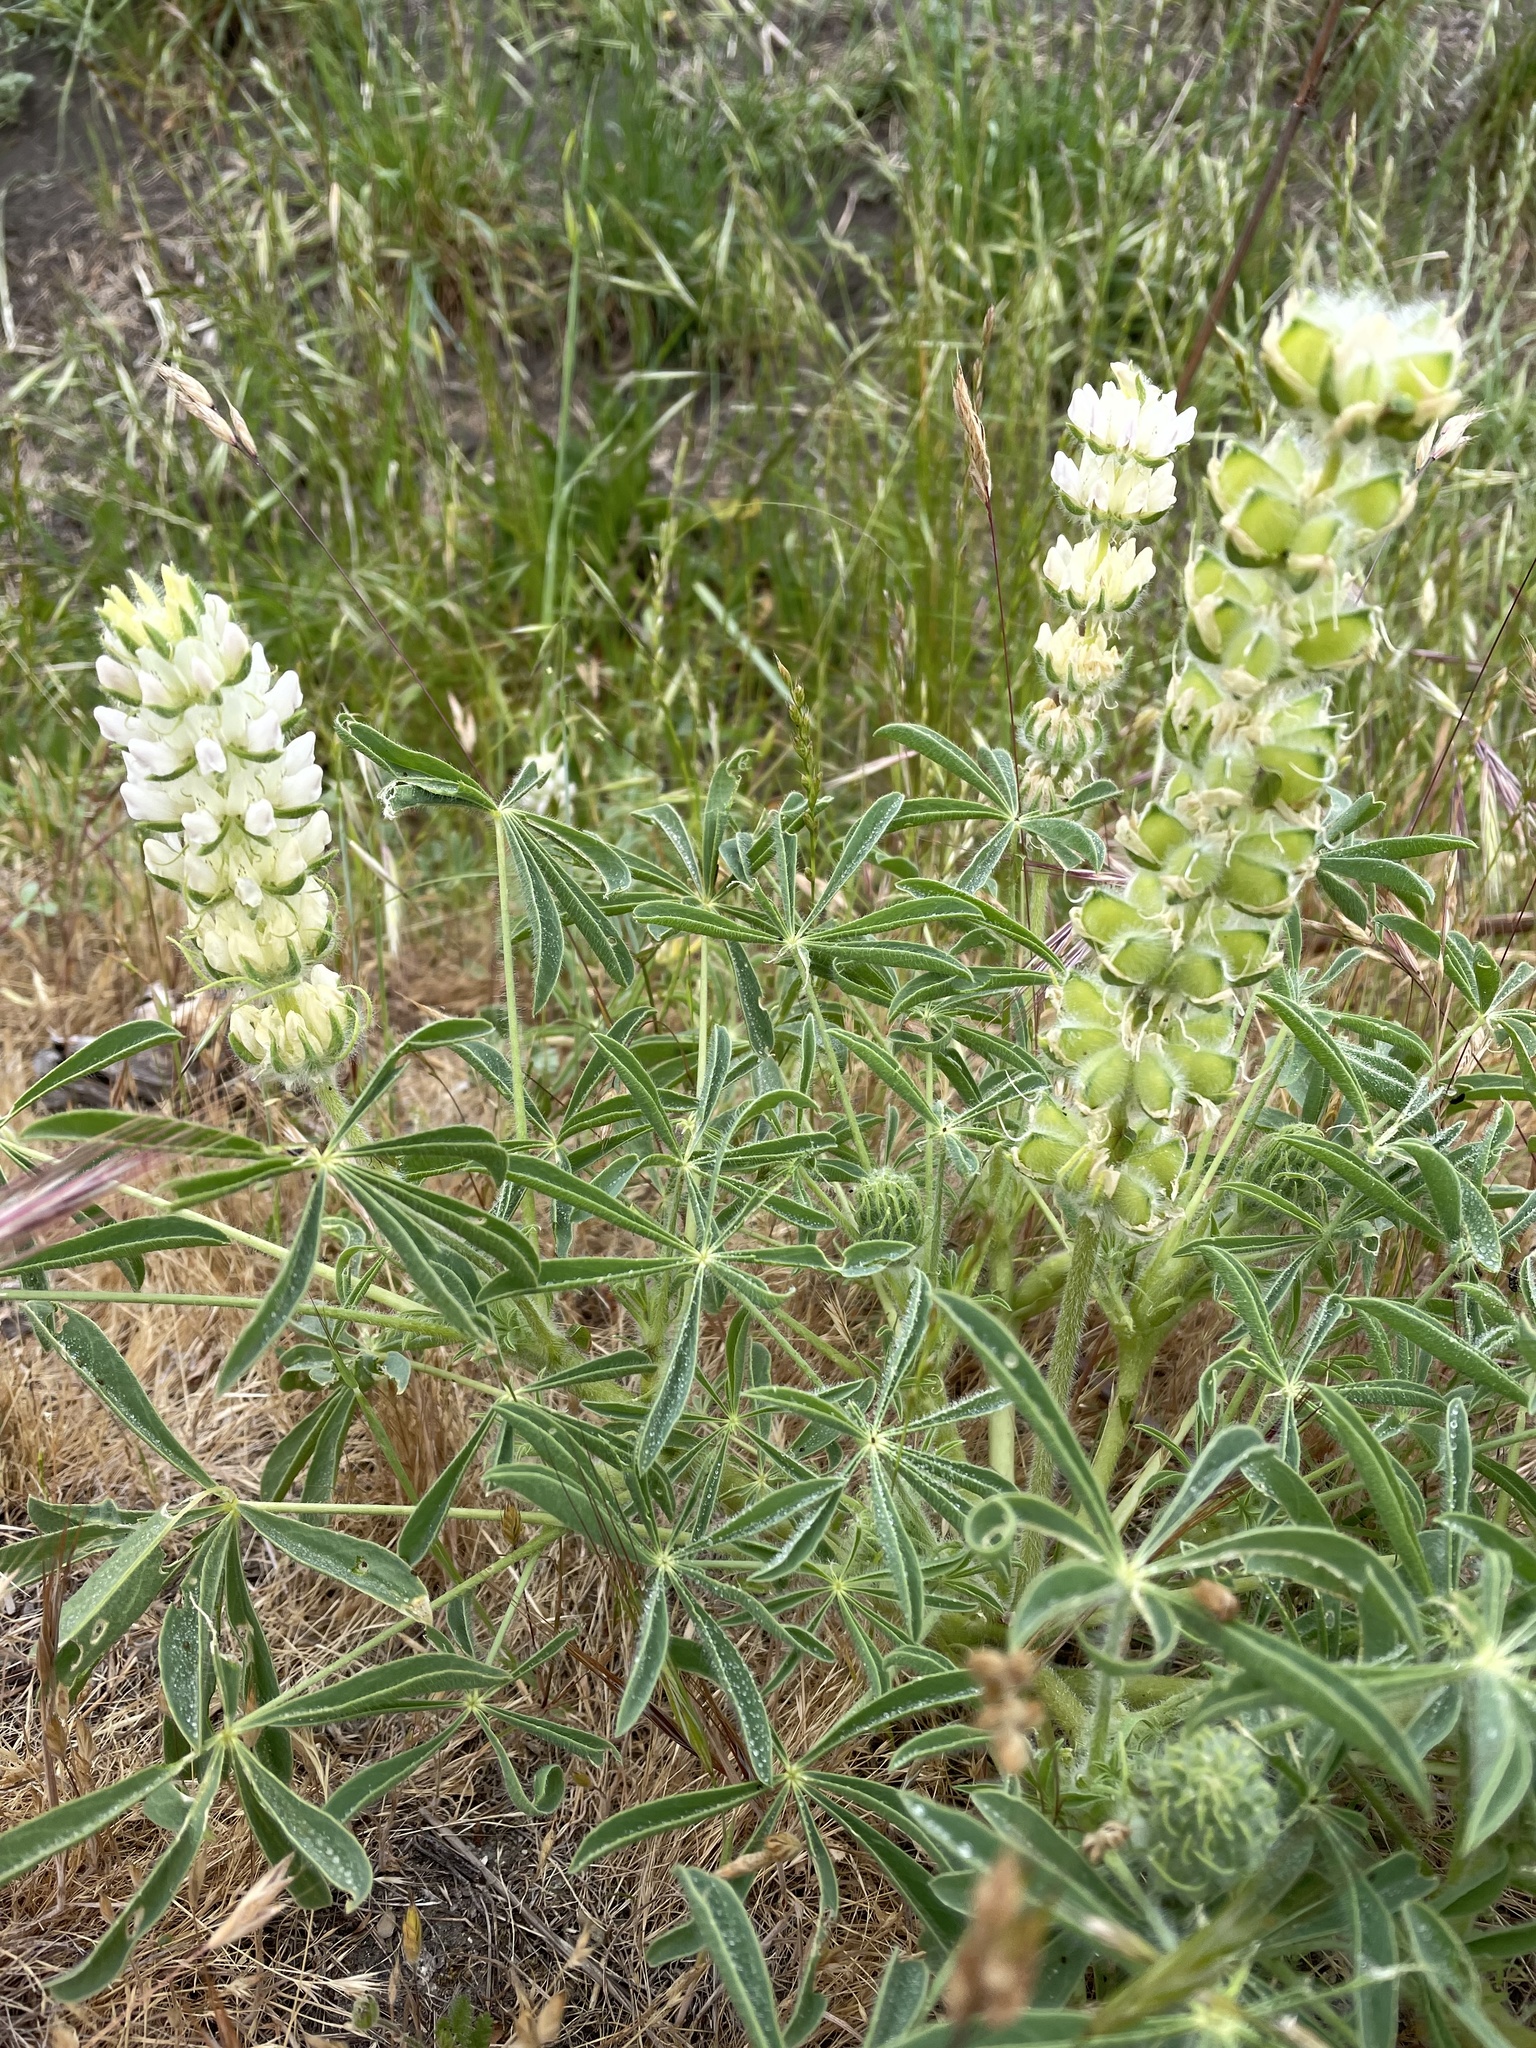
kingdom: Plantae
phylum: Tracheophyta
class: Magnoliopsida
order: Fabales
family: Fabaceae
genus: Lupinus
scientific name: Lupinus microcarpus
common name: Chick lupine
